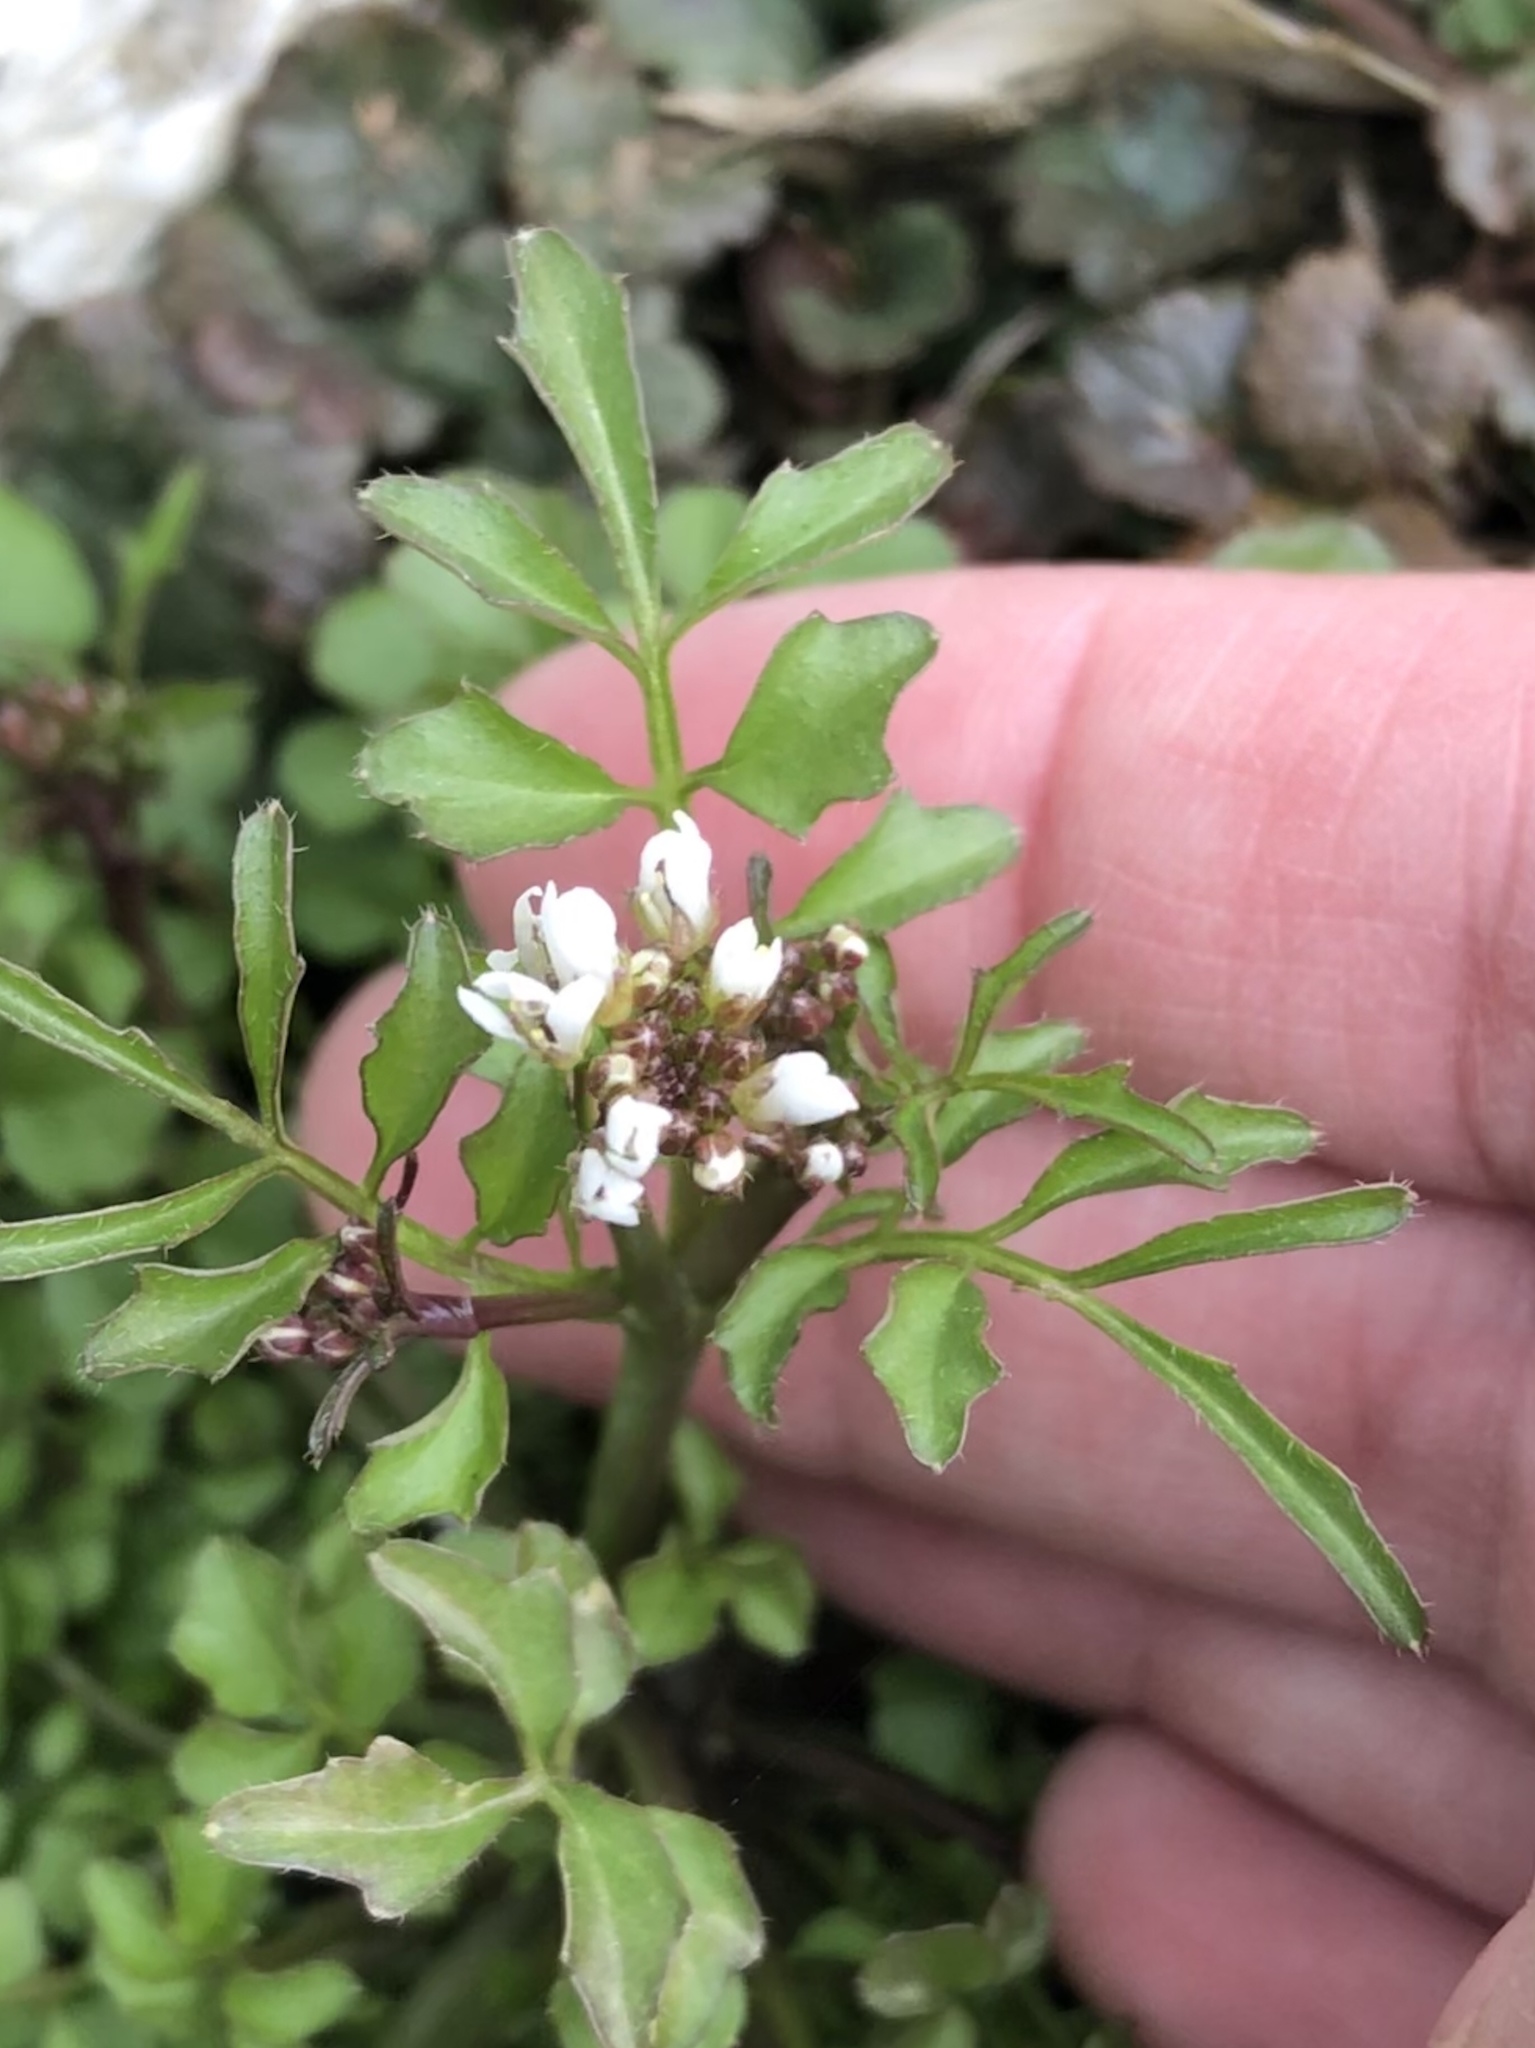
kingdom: Plantae
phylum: Tracheophyta
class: Magnoliopsida
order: Brassicales
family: Brassicaceae
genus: Cardamine
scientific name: Cardamine hirsuta
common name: Hairy bittercress
